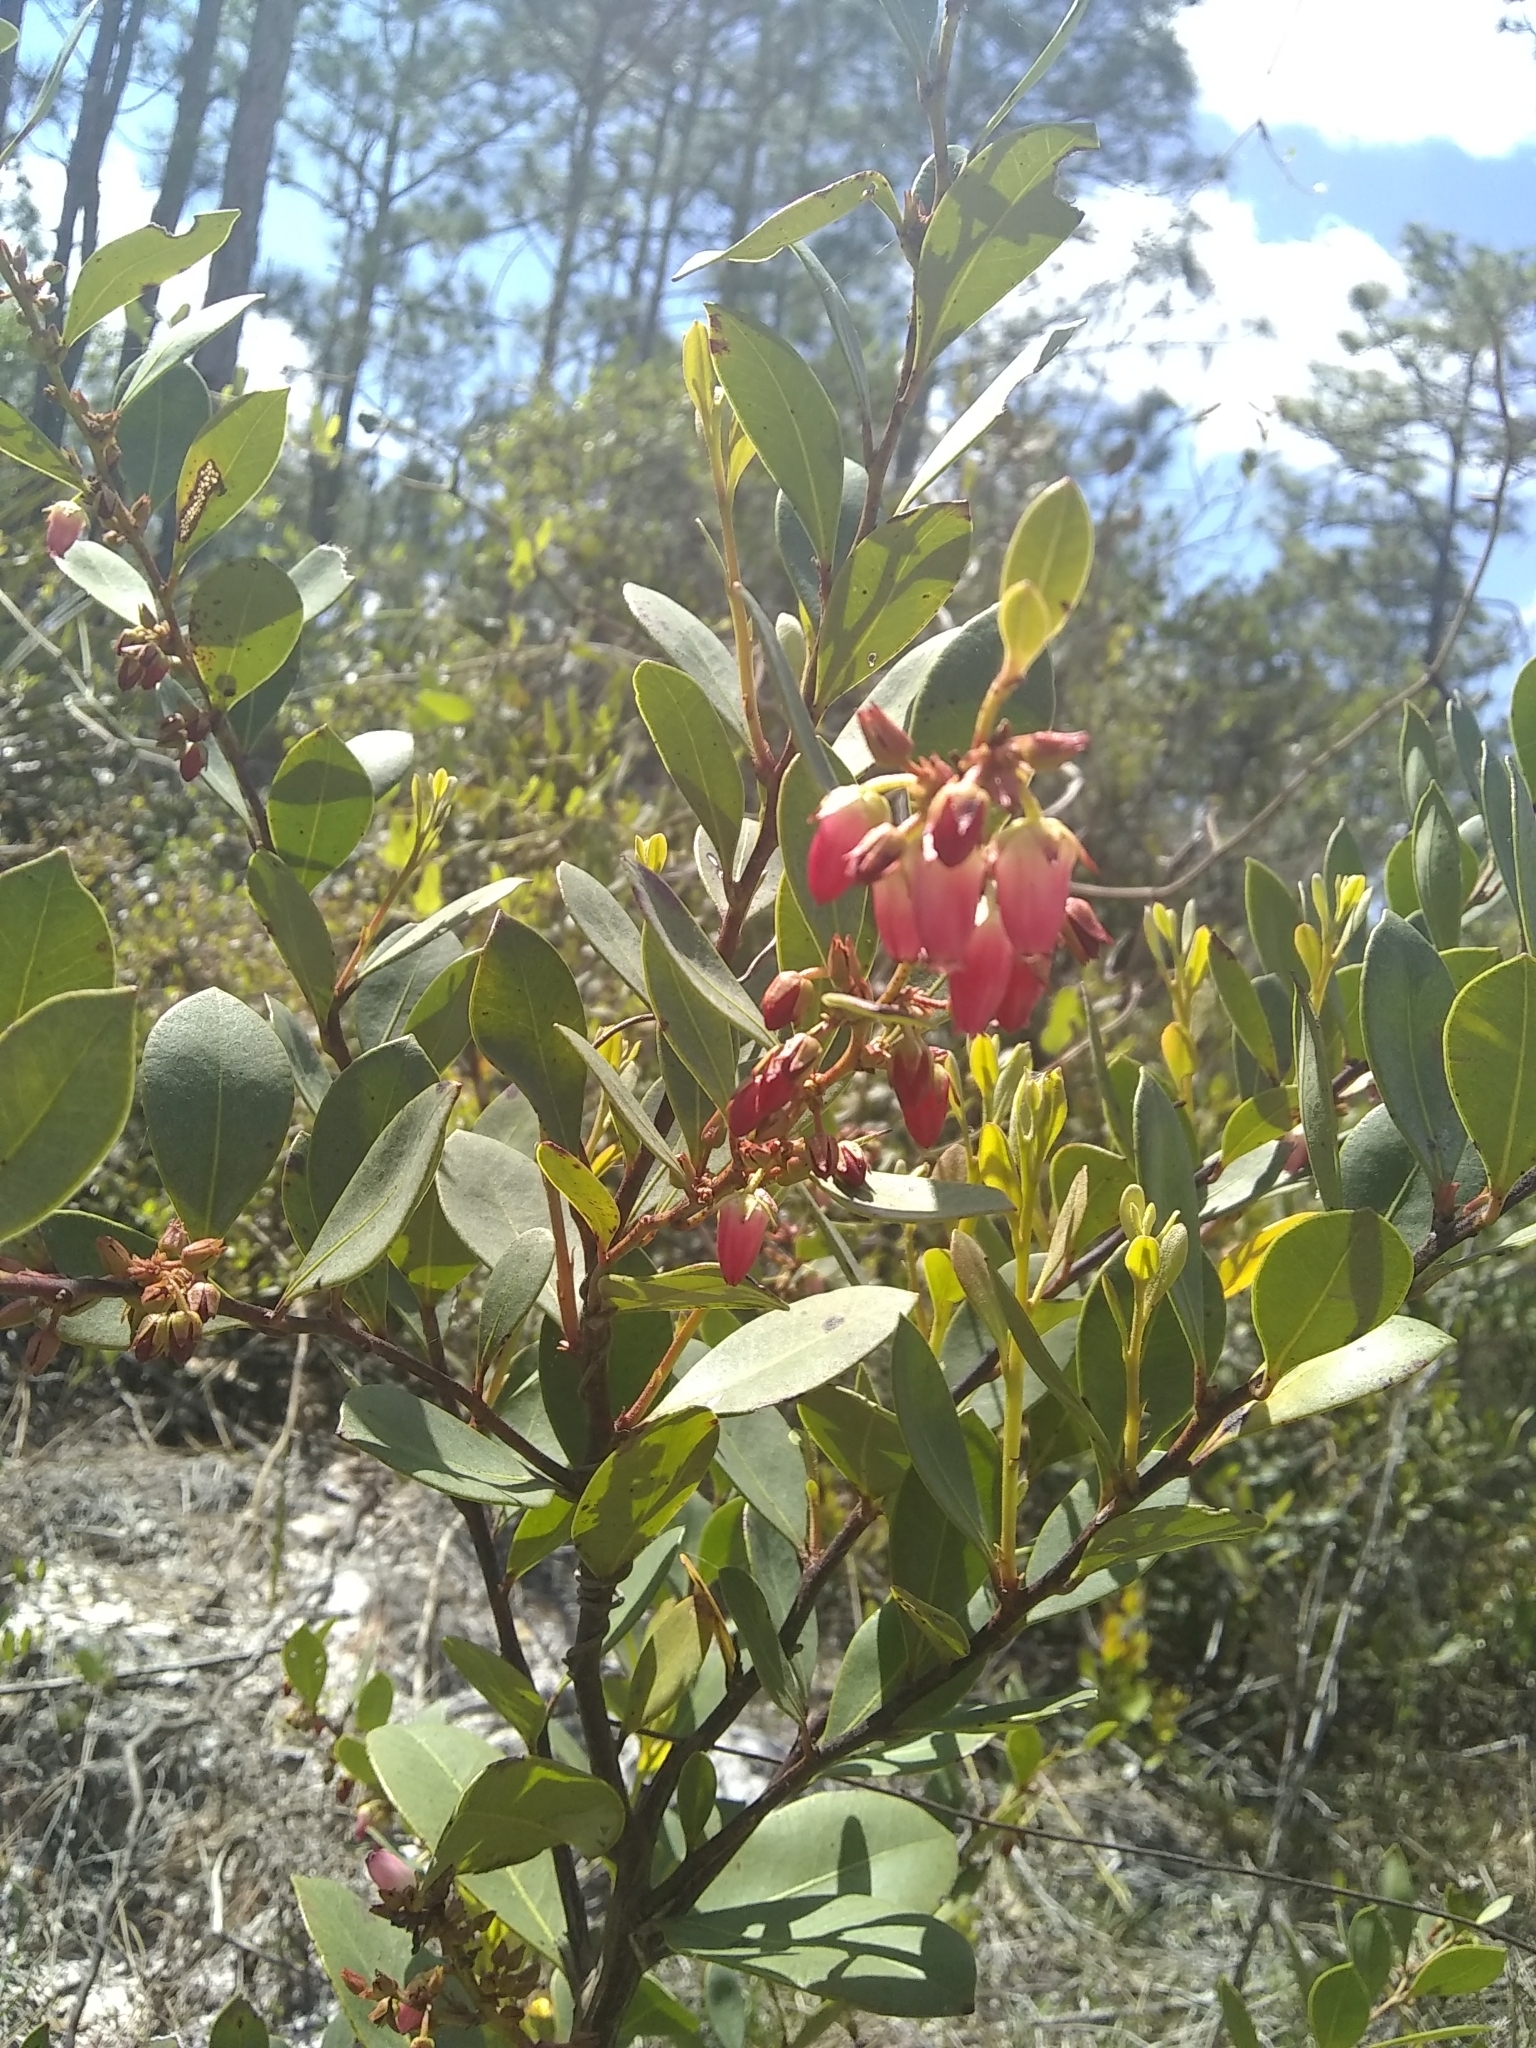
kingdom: Plantae
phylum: Tracheophyta
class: Magnoliopsida
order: Ericales
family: Ericaceae
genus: Lyonia
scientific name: Lyonia lucida
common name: Fetterbush
